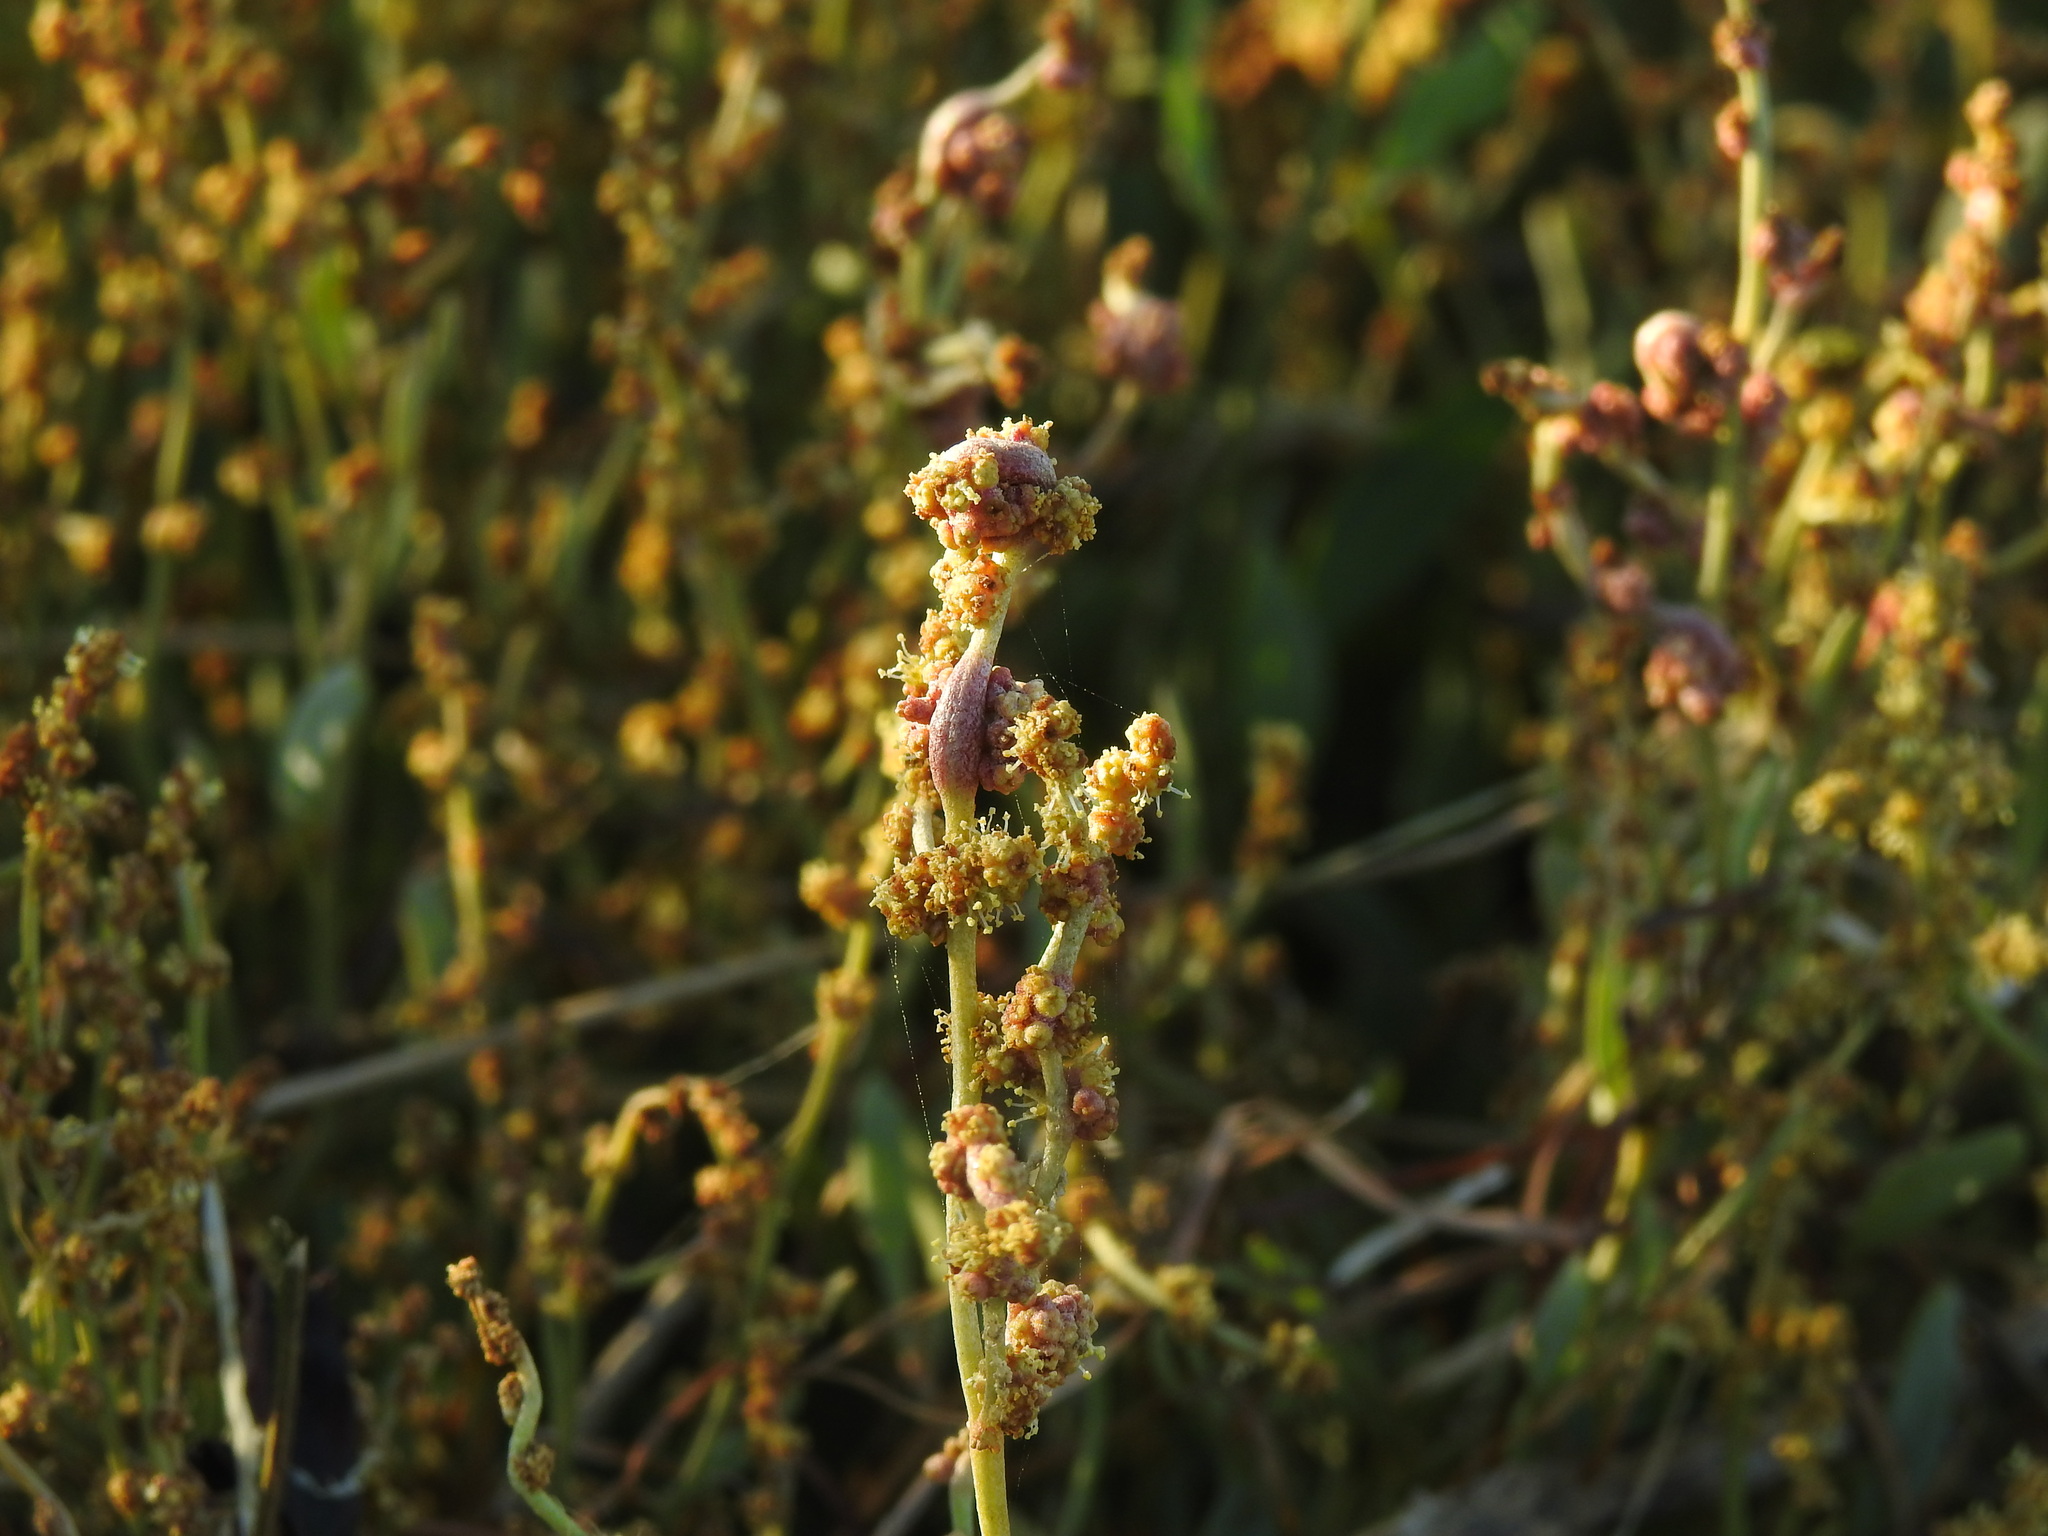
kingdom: Animalia
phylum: Arthropoda
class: Arachnida
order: Trombidiformes
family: Eriophyidae
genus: Eriophyes
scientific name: Eriophyes obiones
